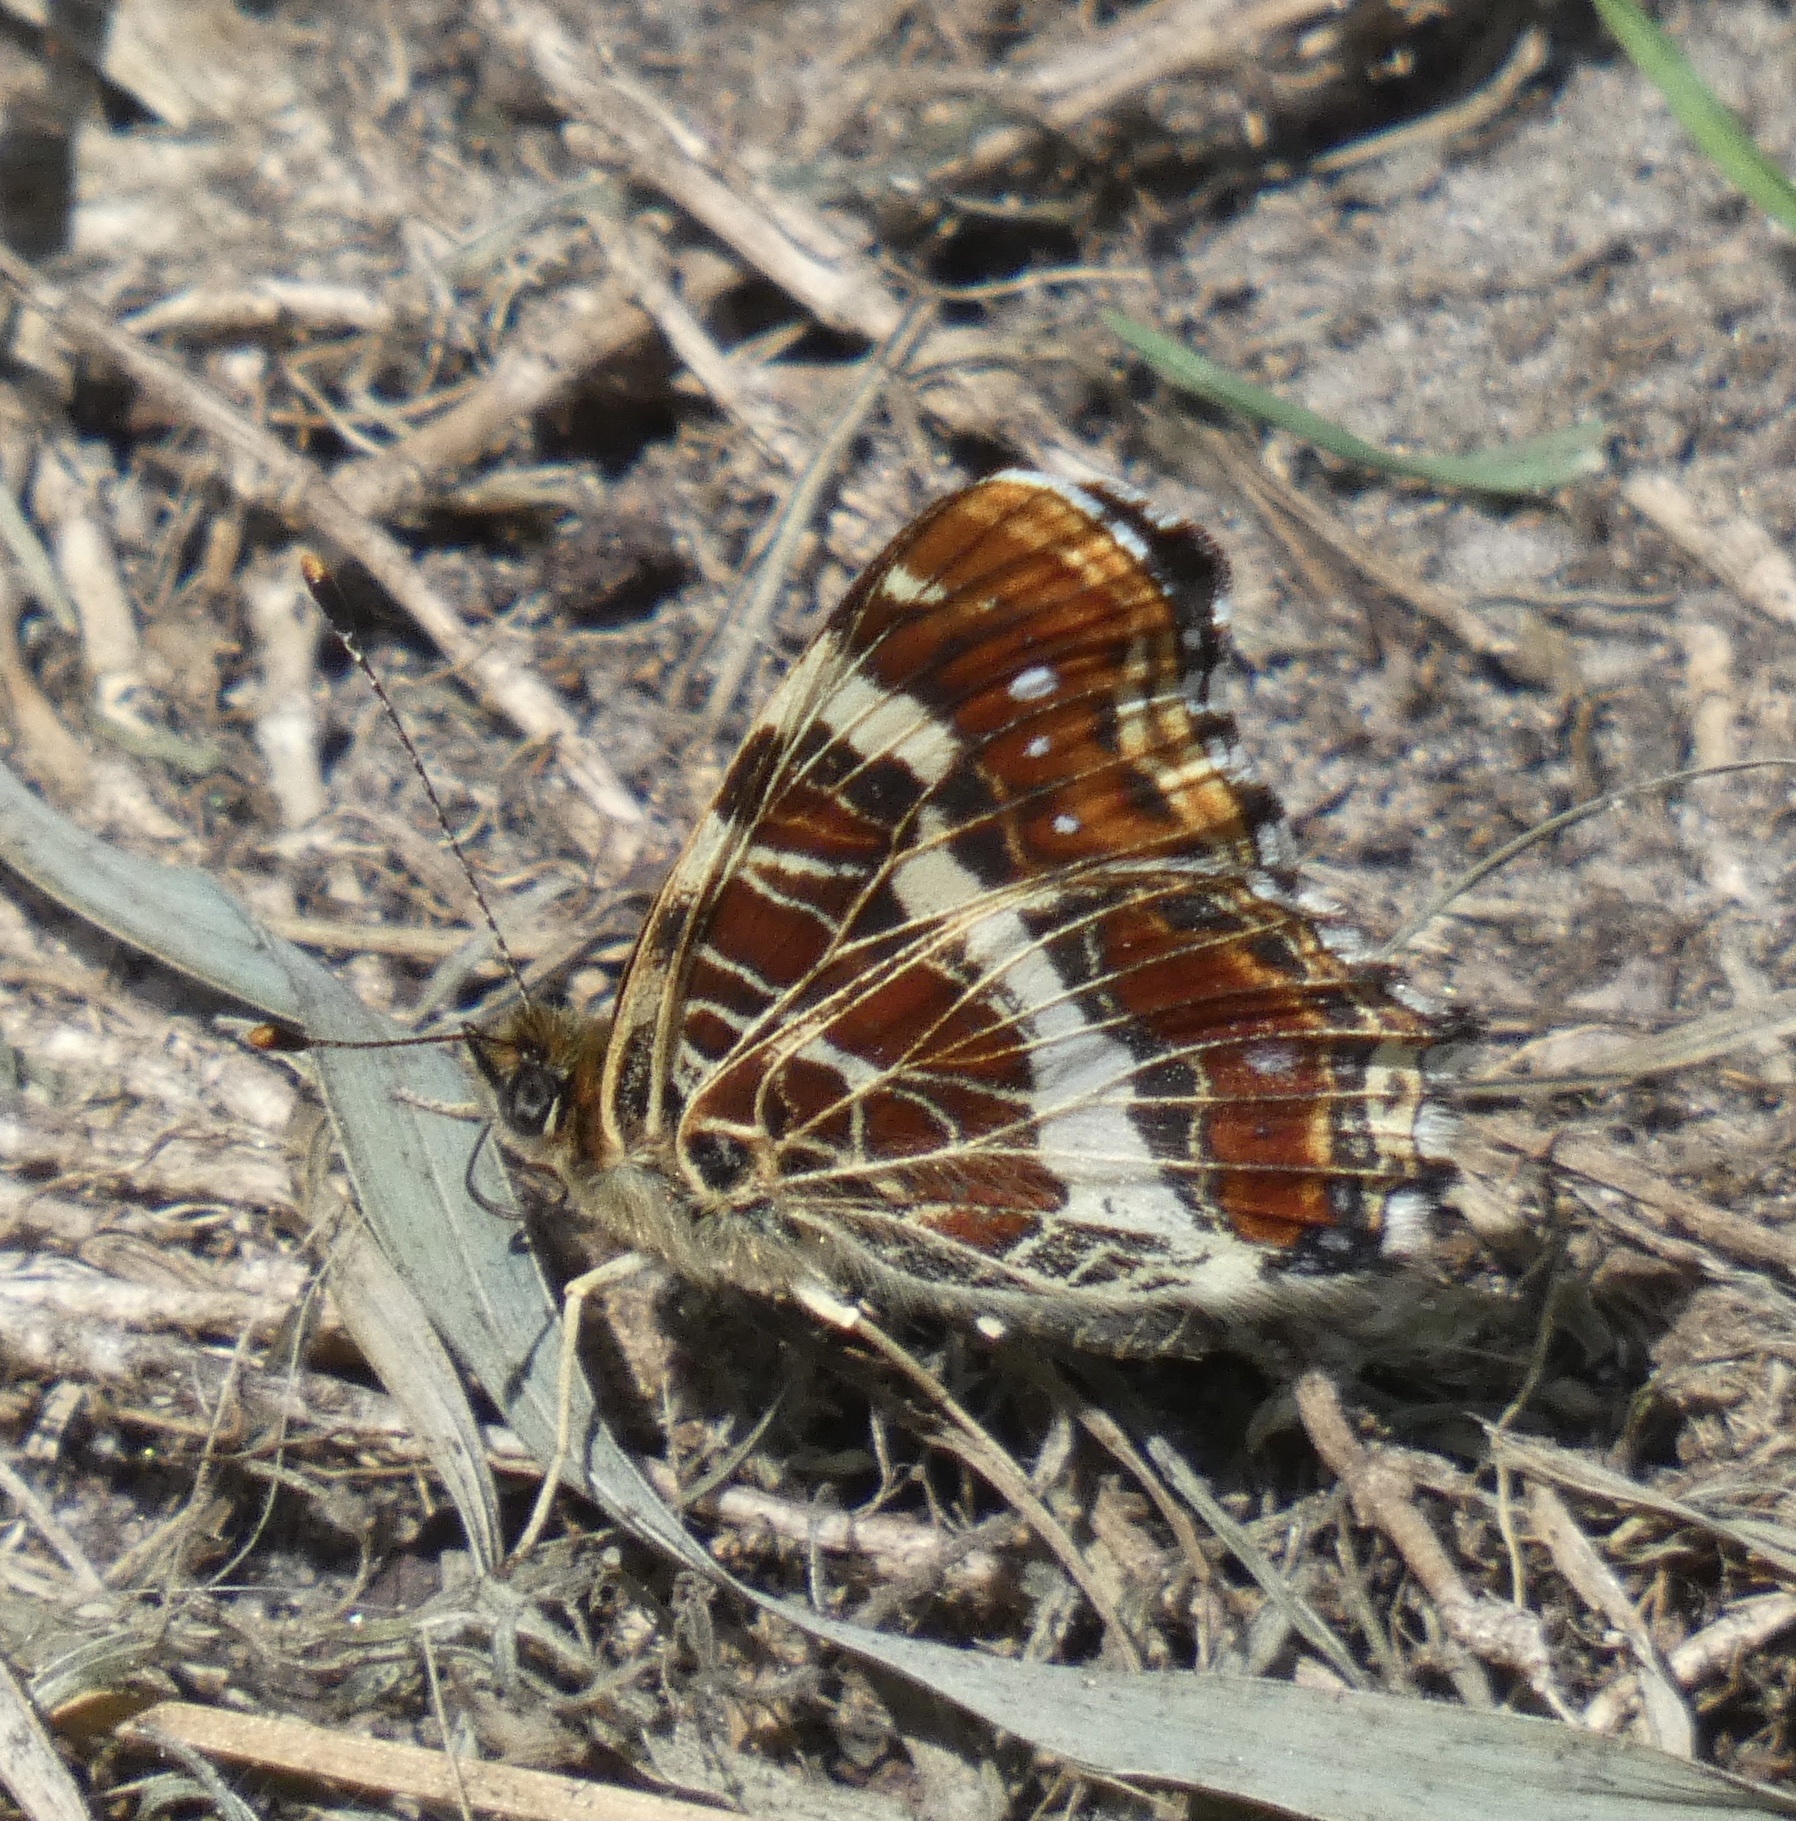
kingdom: Animalia
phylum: Arthropoda
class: Insecta
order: Lepidoptera
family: Nymphalidae
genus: Araschnia
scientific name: Araschnia levana
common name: Map butterfly
